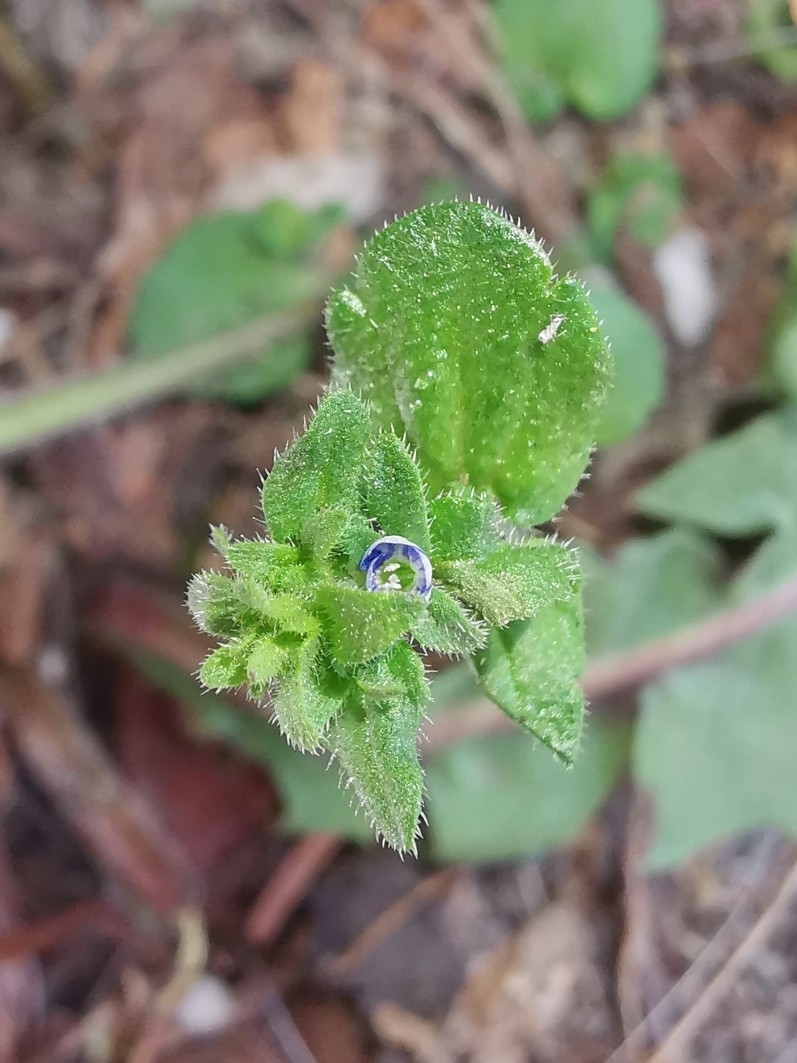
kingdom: Plantae
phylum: Tracheophyta
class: Magnoliopsida
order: Lamiales
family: Plantaginaceae
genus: Veronica
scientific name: Veronica arvensis
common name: Corn speedwell
